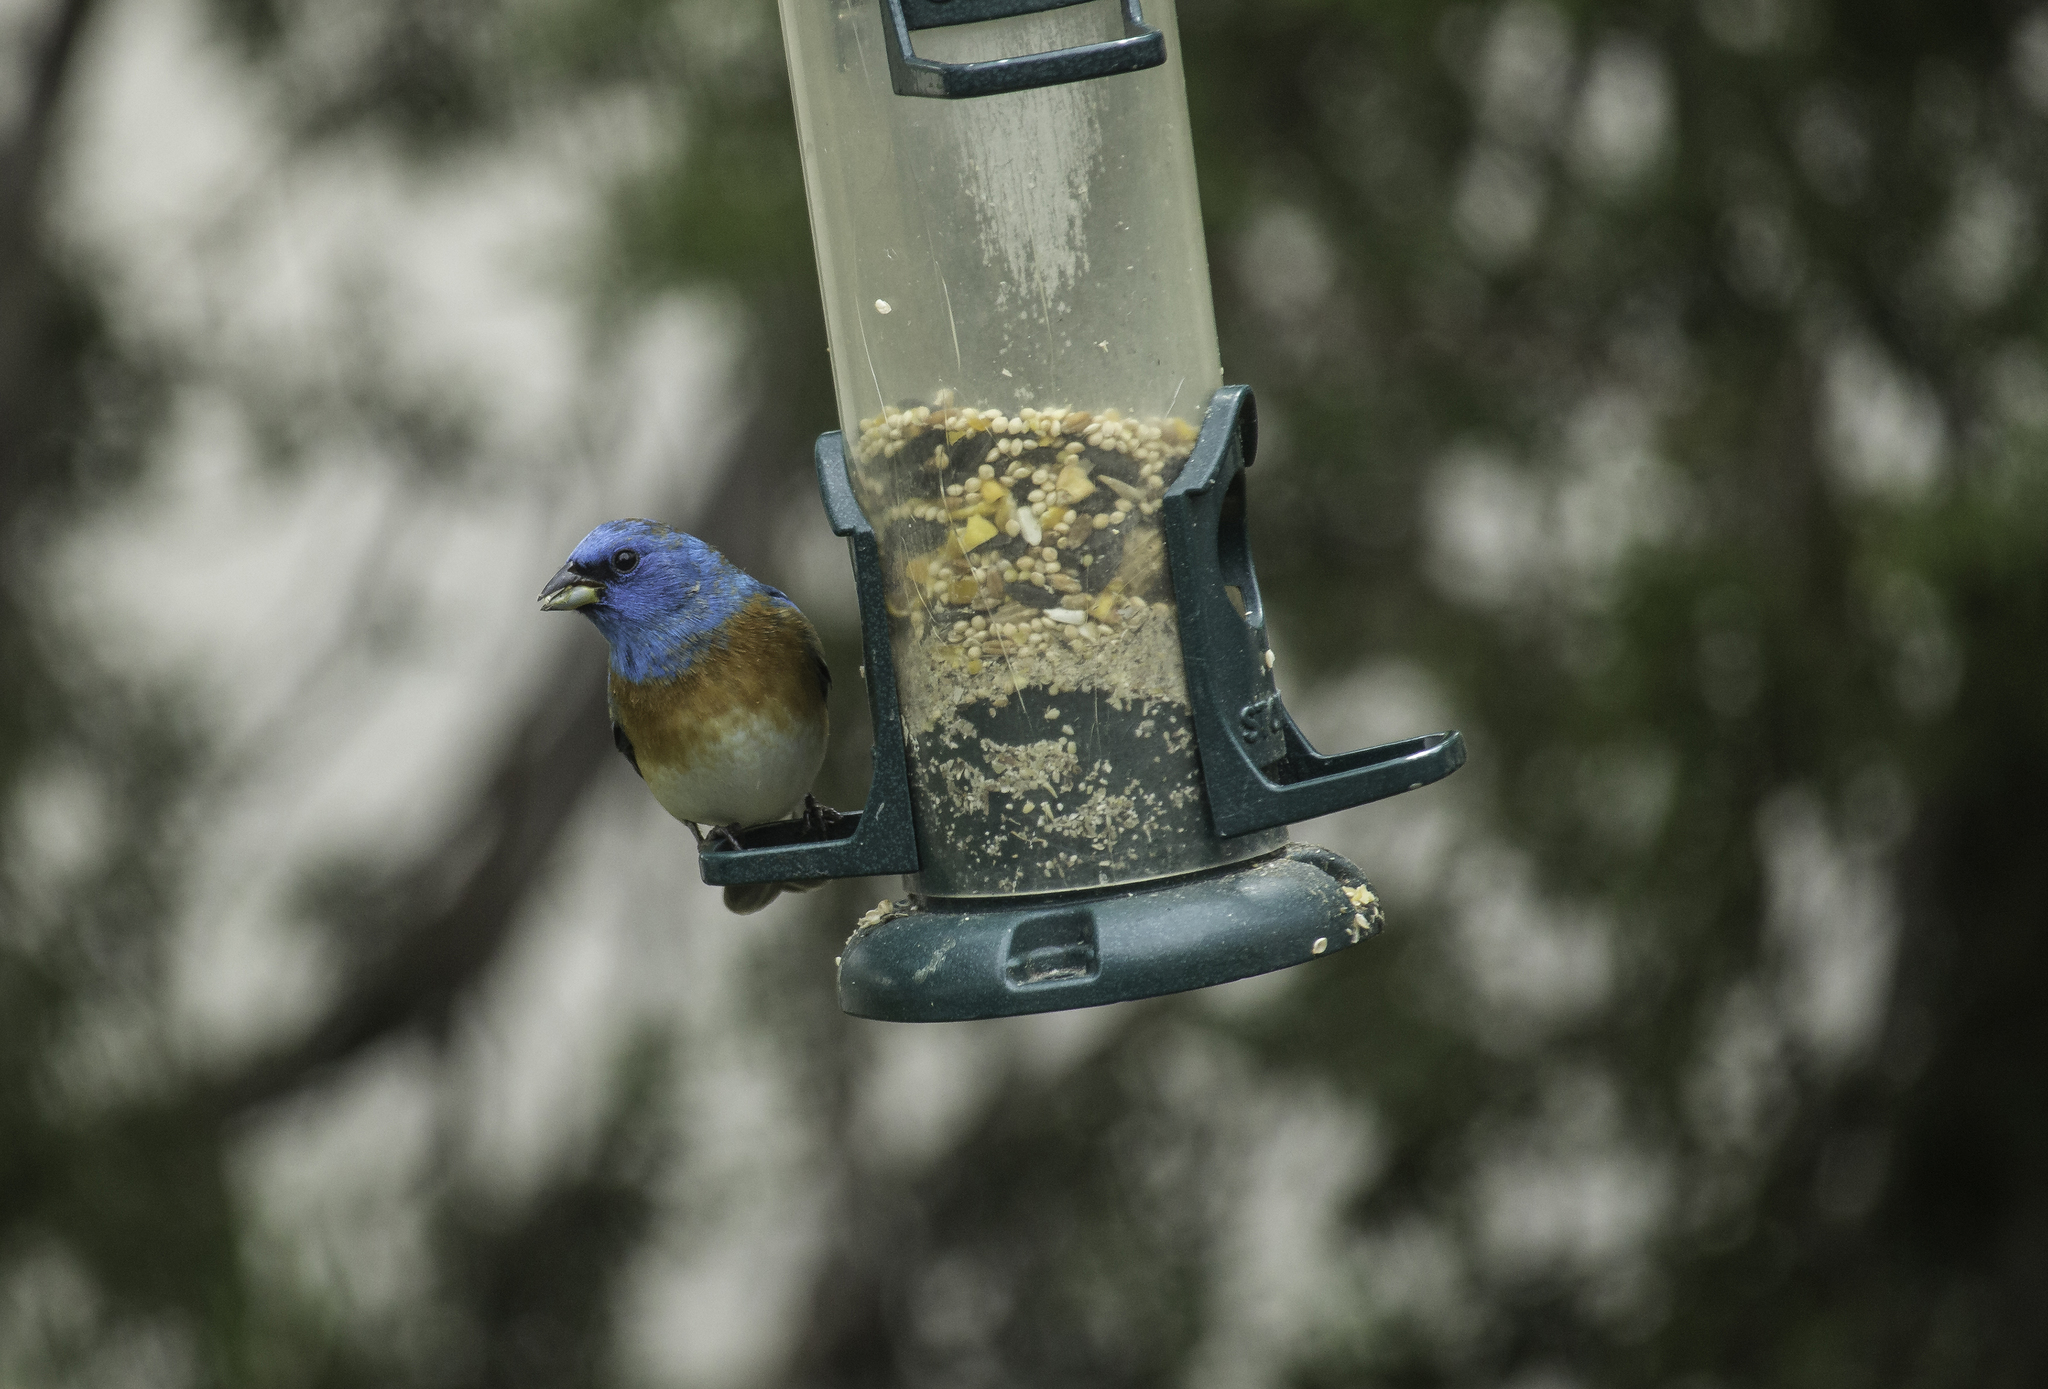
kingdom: Animalia
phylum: Chordata
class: Aves
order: Passeriformes
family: Cardinalidae
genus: Passerina
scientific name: Passerina amoena
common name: Lazuli bunting
